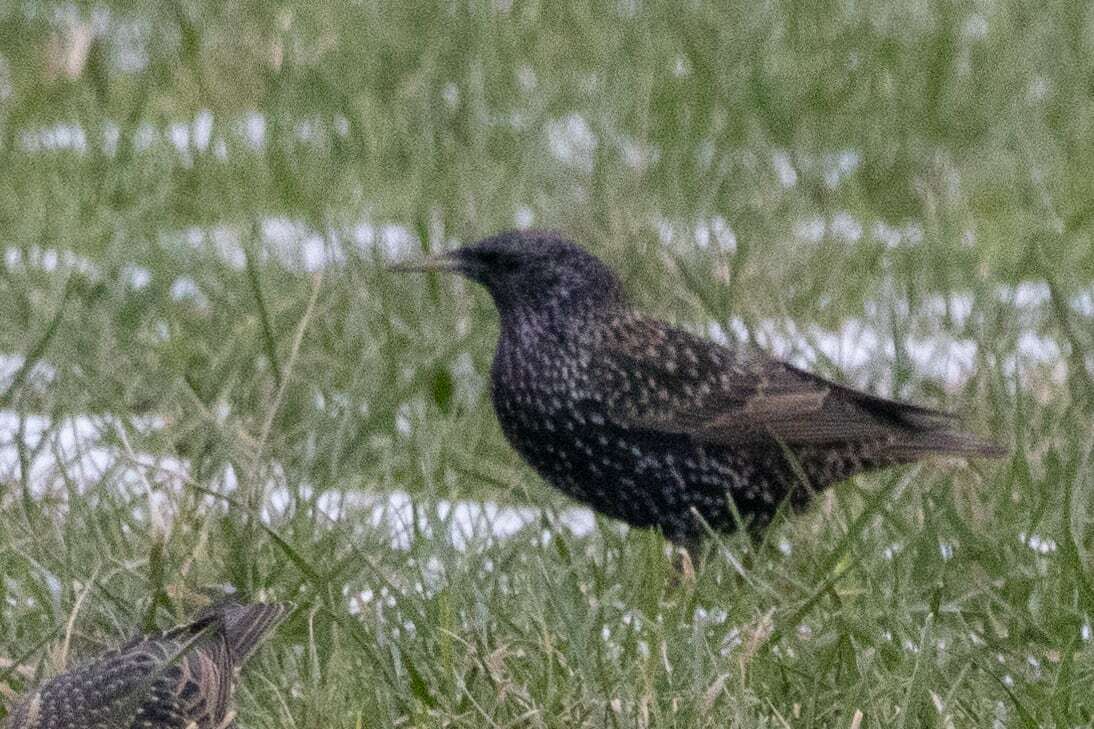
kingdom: Animalia
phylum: Chordata
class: Aves
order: Passeriformes
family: Sturnidae
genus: Sturnus
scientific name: Sturnus vulgaris
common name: Common starling
